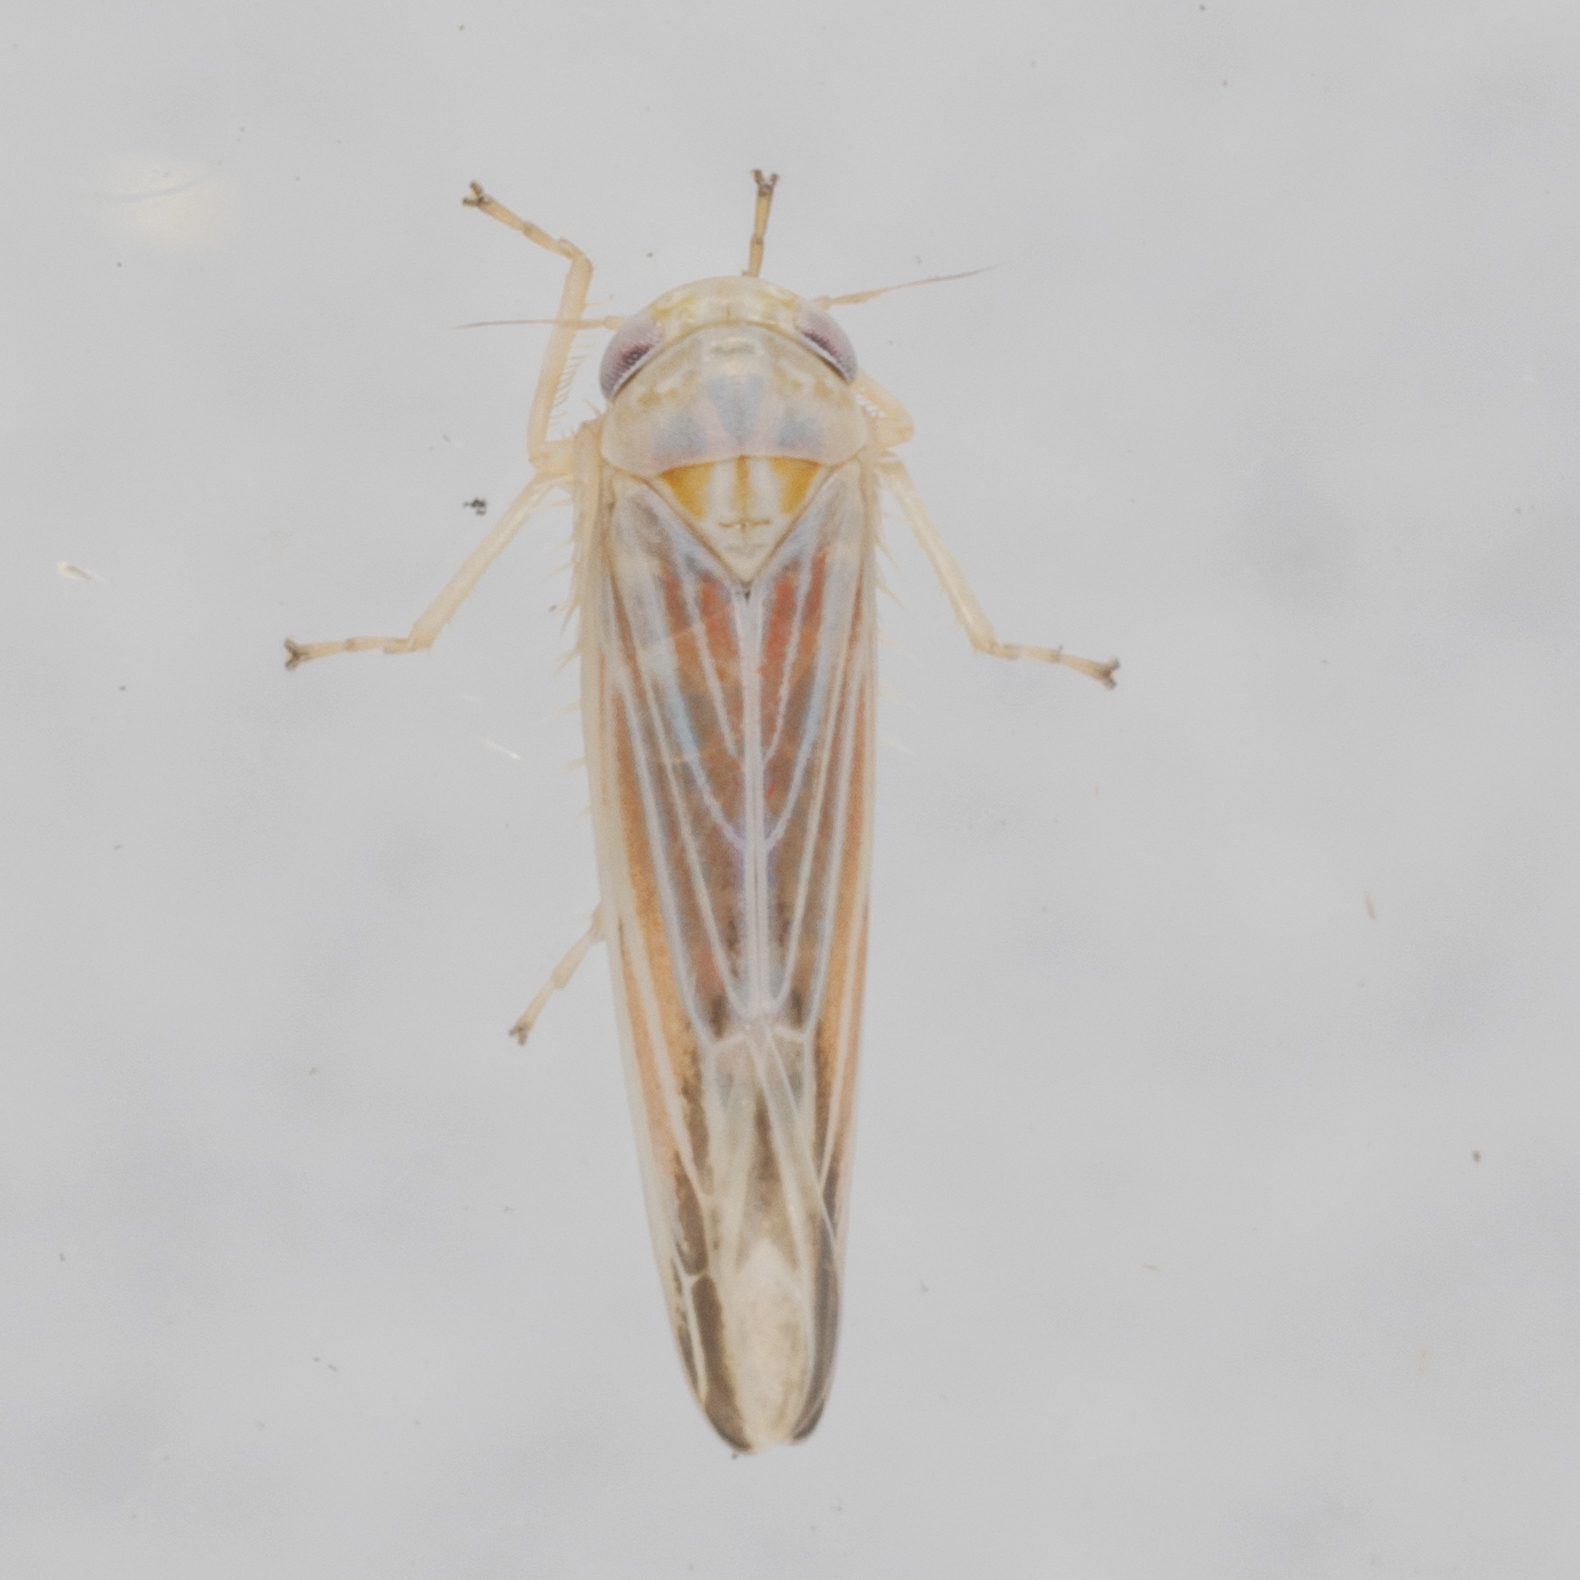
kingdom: Animalia
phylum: Arthropoda
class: Insecta
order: Hemiptera
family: Cicadellidae
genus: Balclutha
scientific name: Balclutha rubrostriata
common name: Red-streaked leafhopper
